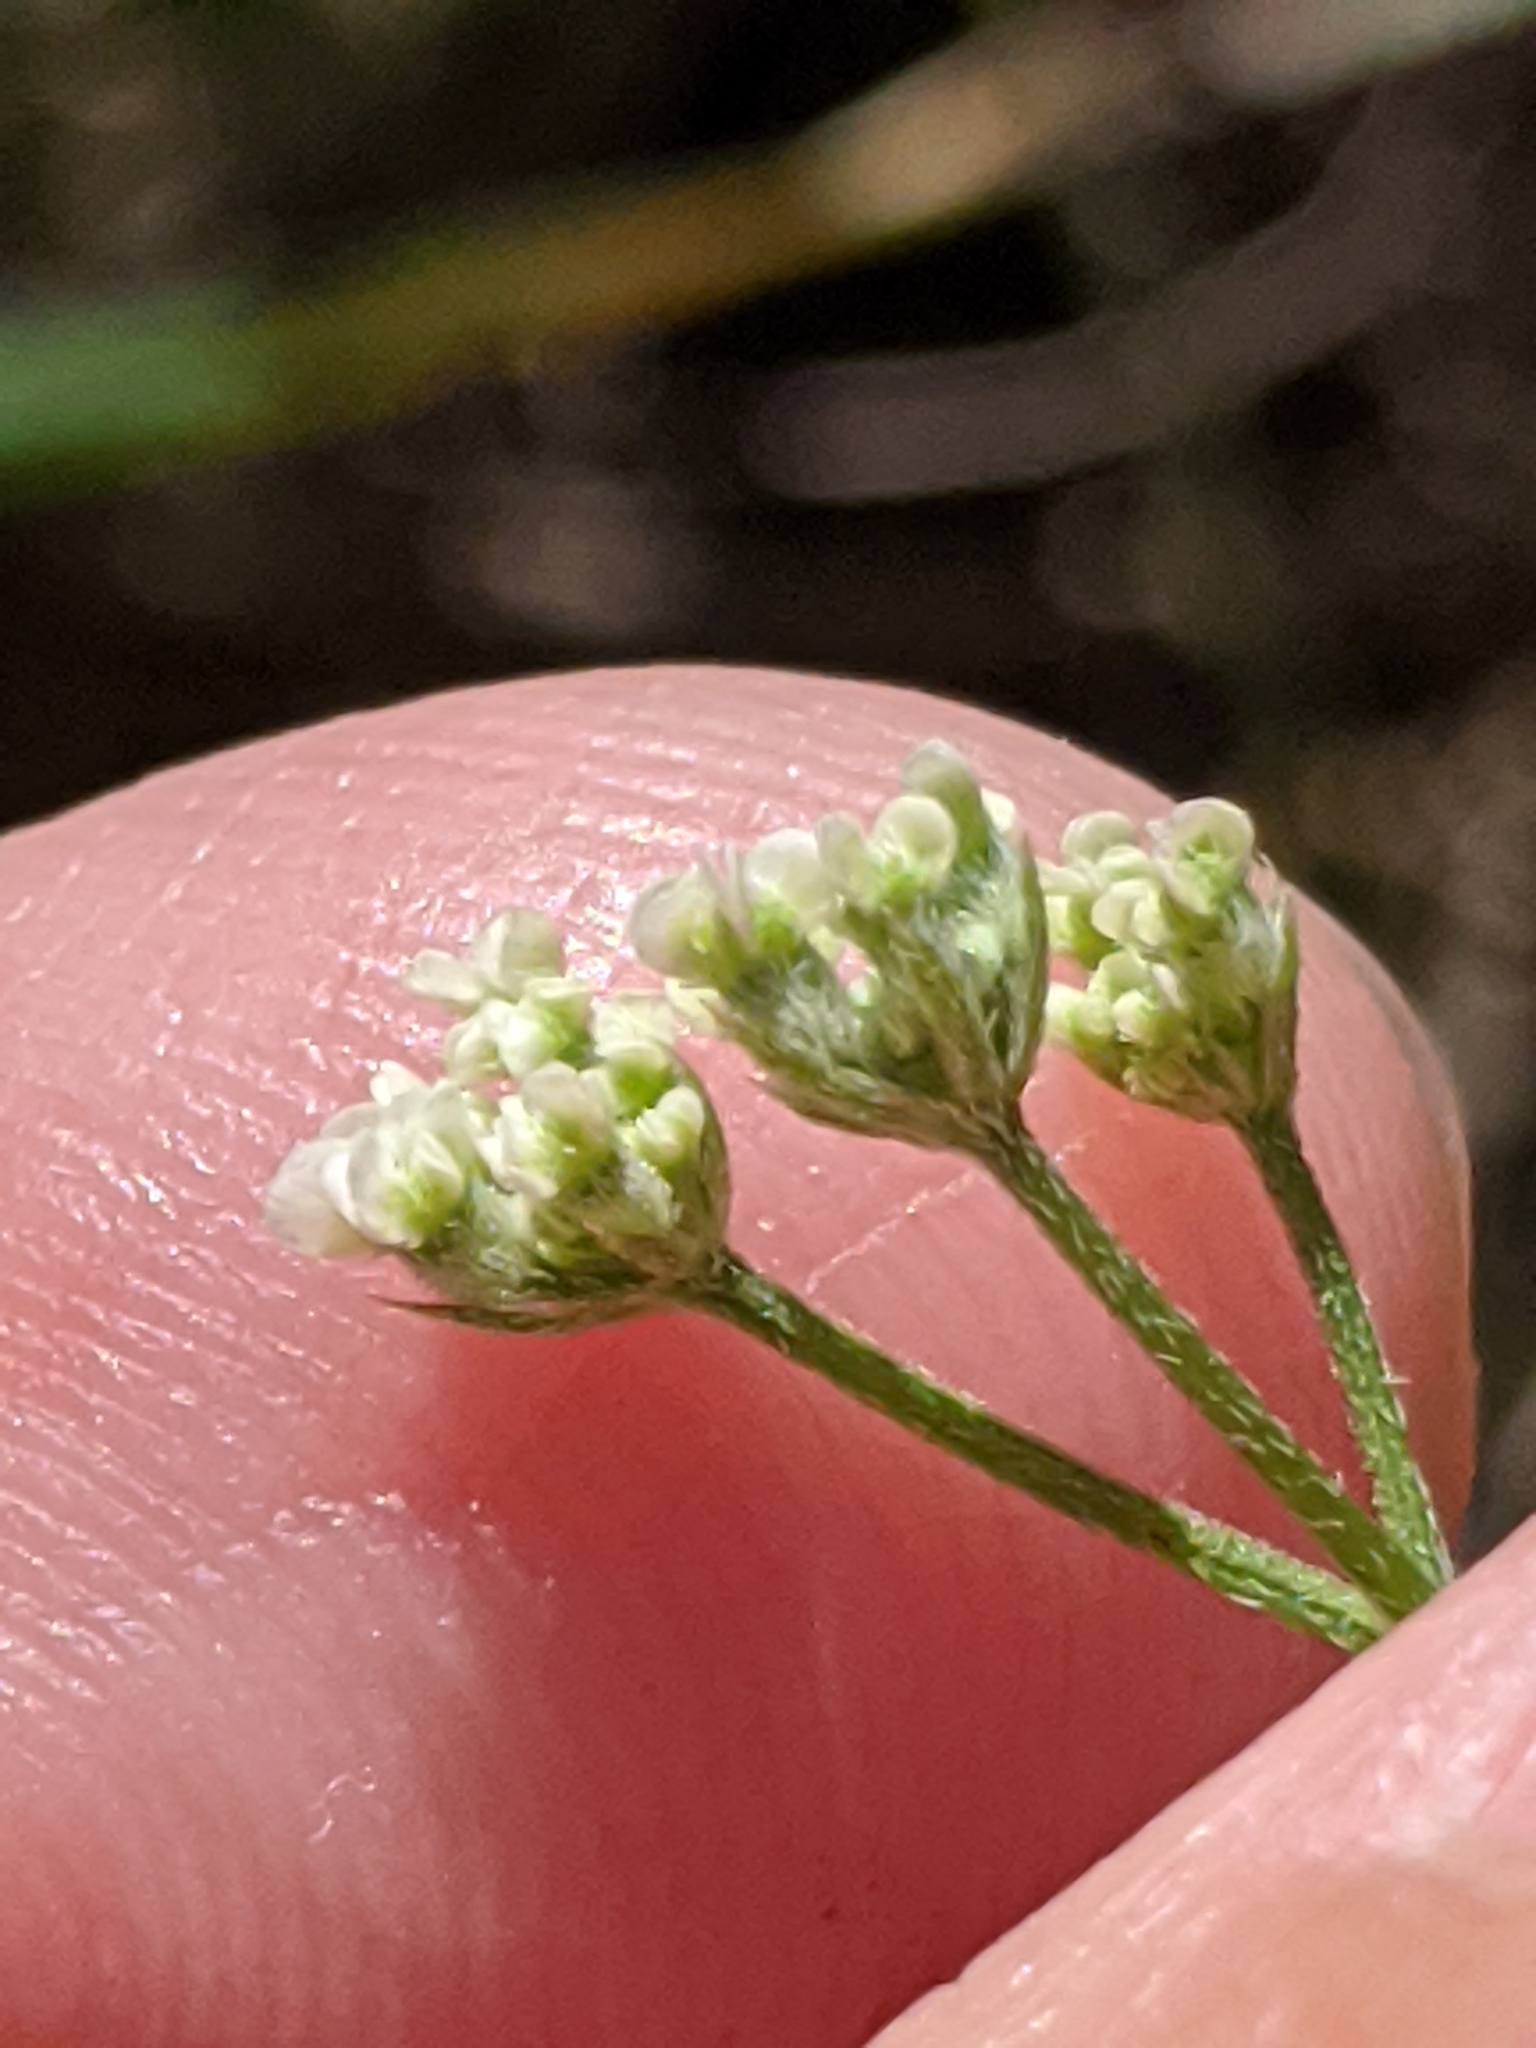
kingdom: Plantae
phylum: Tracheophyta
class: Magnoliopsida
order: Apiales
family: Apiaceae
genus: Torilis
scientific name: Torilis arvensis
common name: Spreading hedge-parsley
